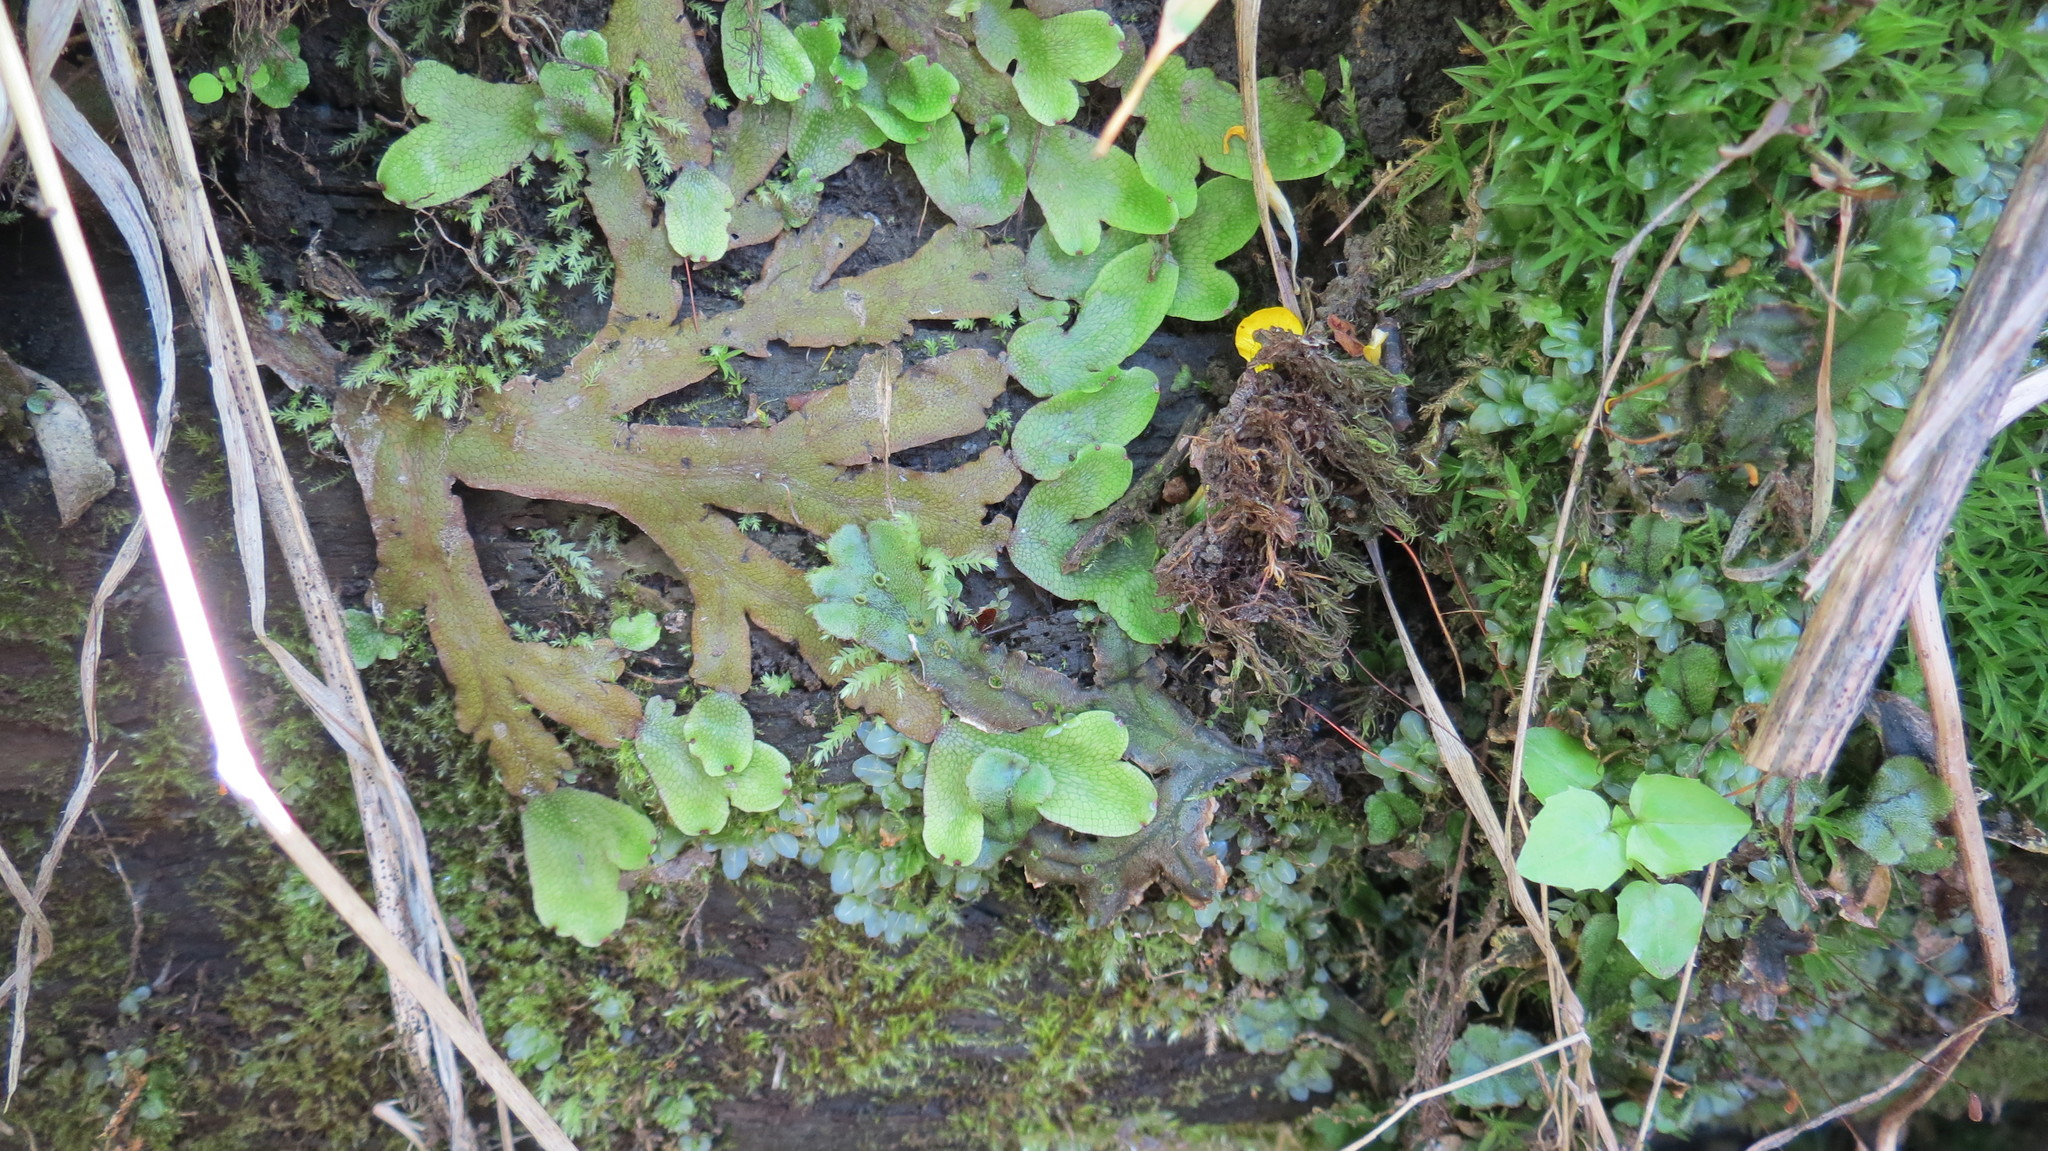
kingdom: Plantae
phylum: Marchantiophyta
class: Marchantiopsida
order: Marchantiales
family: Conocephalaceae
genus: Conocephalum
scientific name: Conocephalum salebrosum
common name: Cat-tongue liverwort
